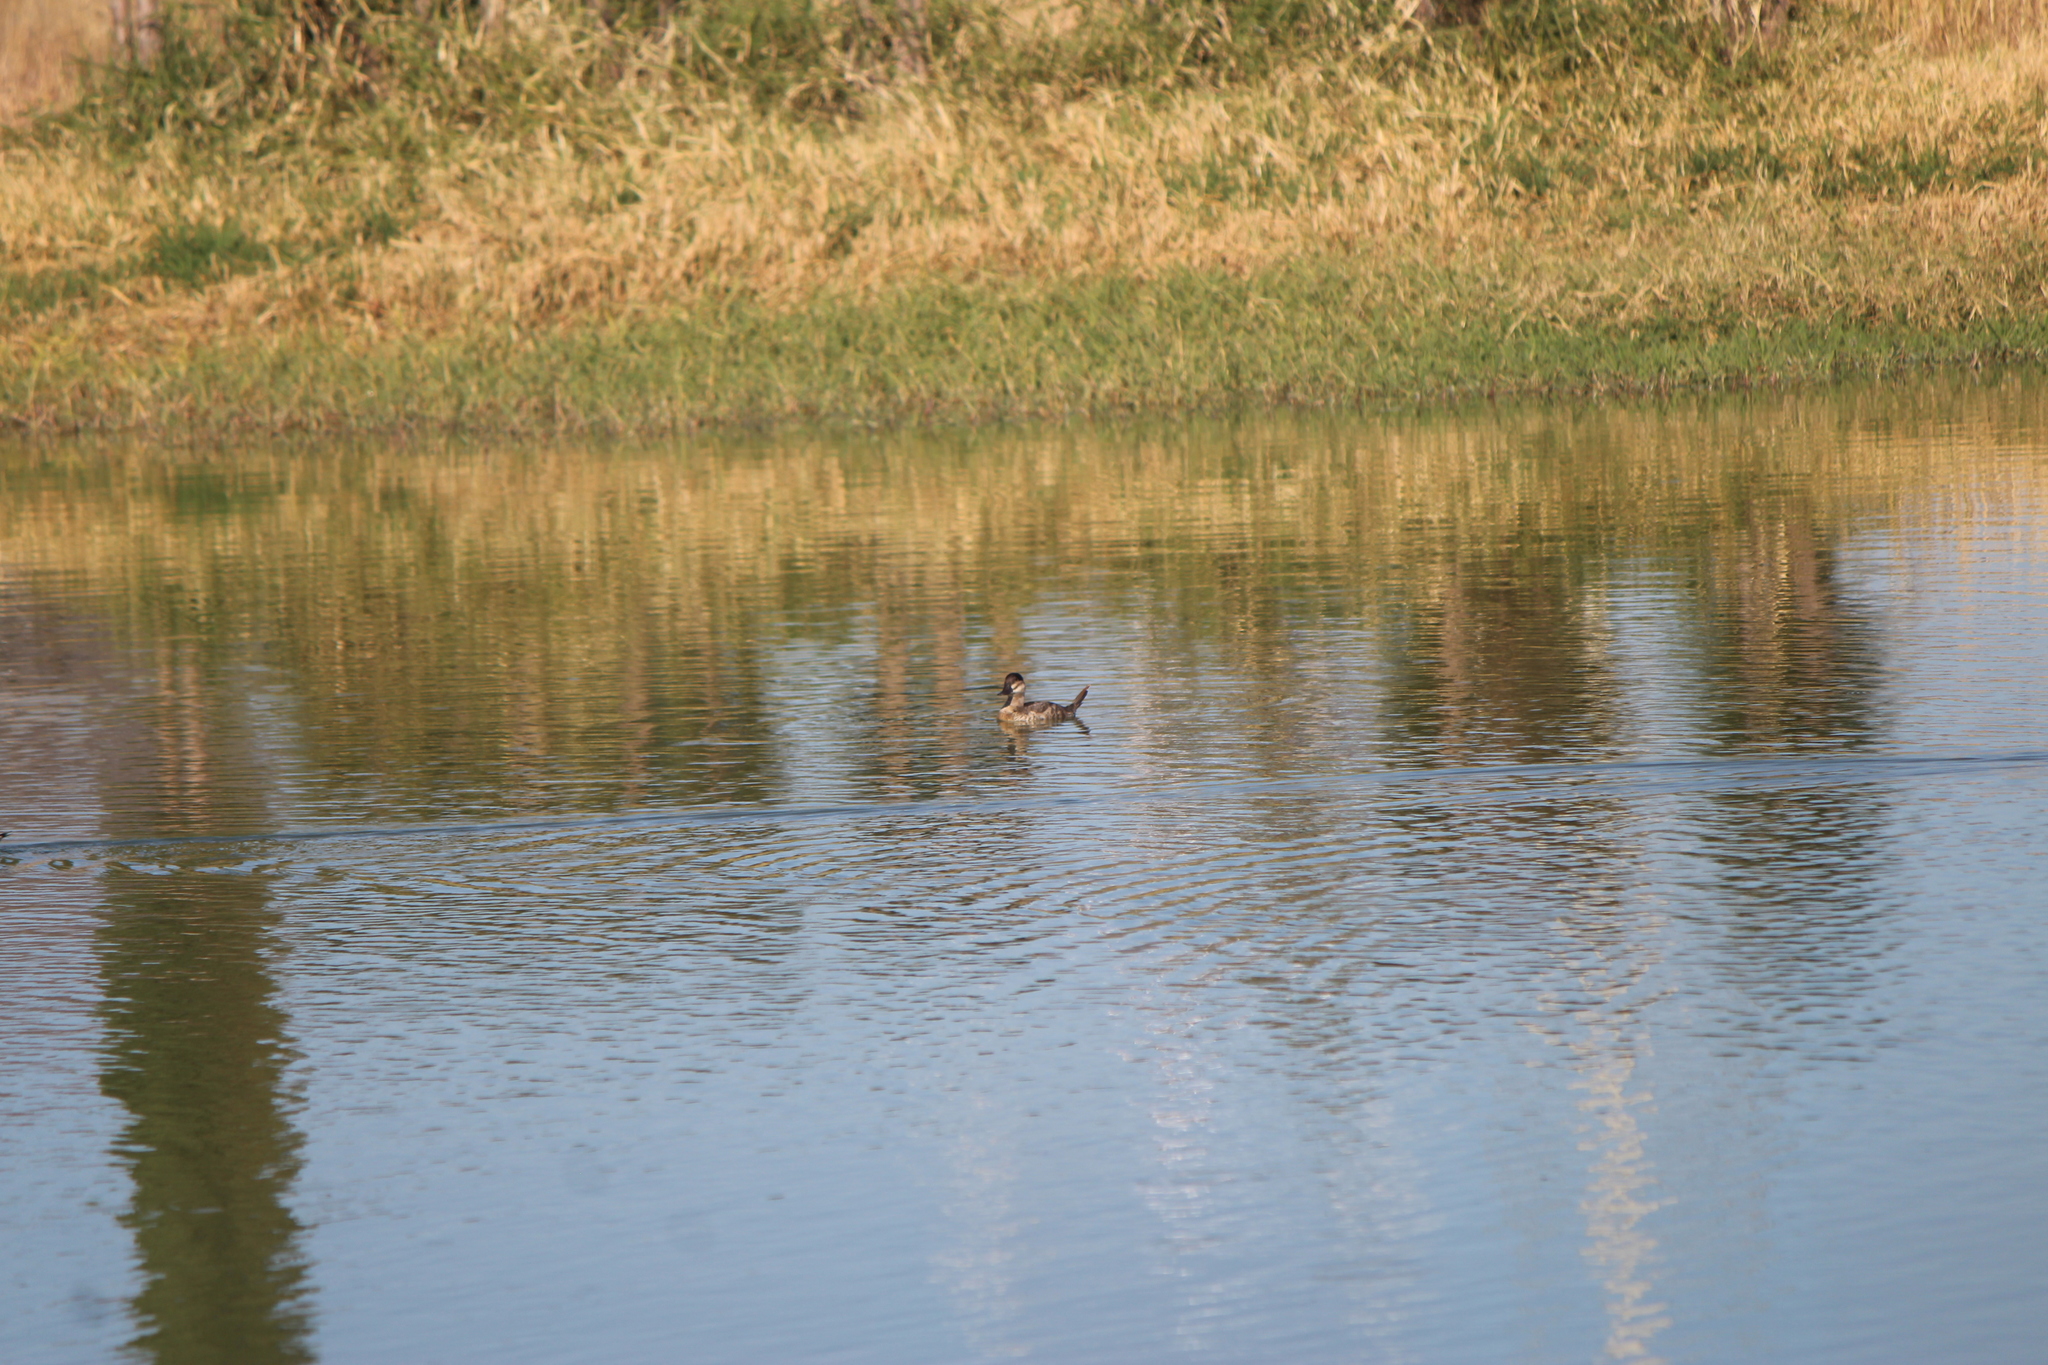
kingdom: Animalia
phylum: Chordata
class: Aves
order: Anseriformes
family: Anatidae
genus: Oxyura
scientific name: Oxyura jamaicensis
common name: Ruddy duck
